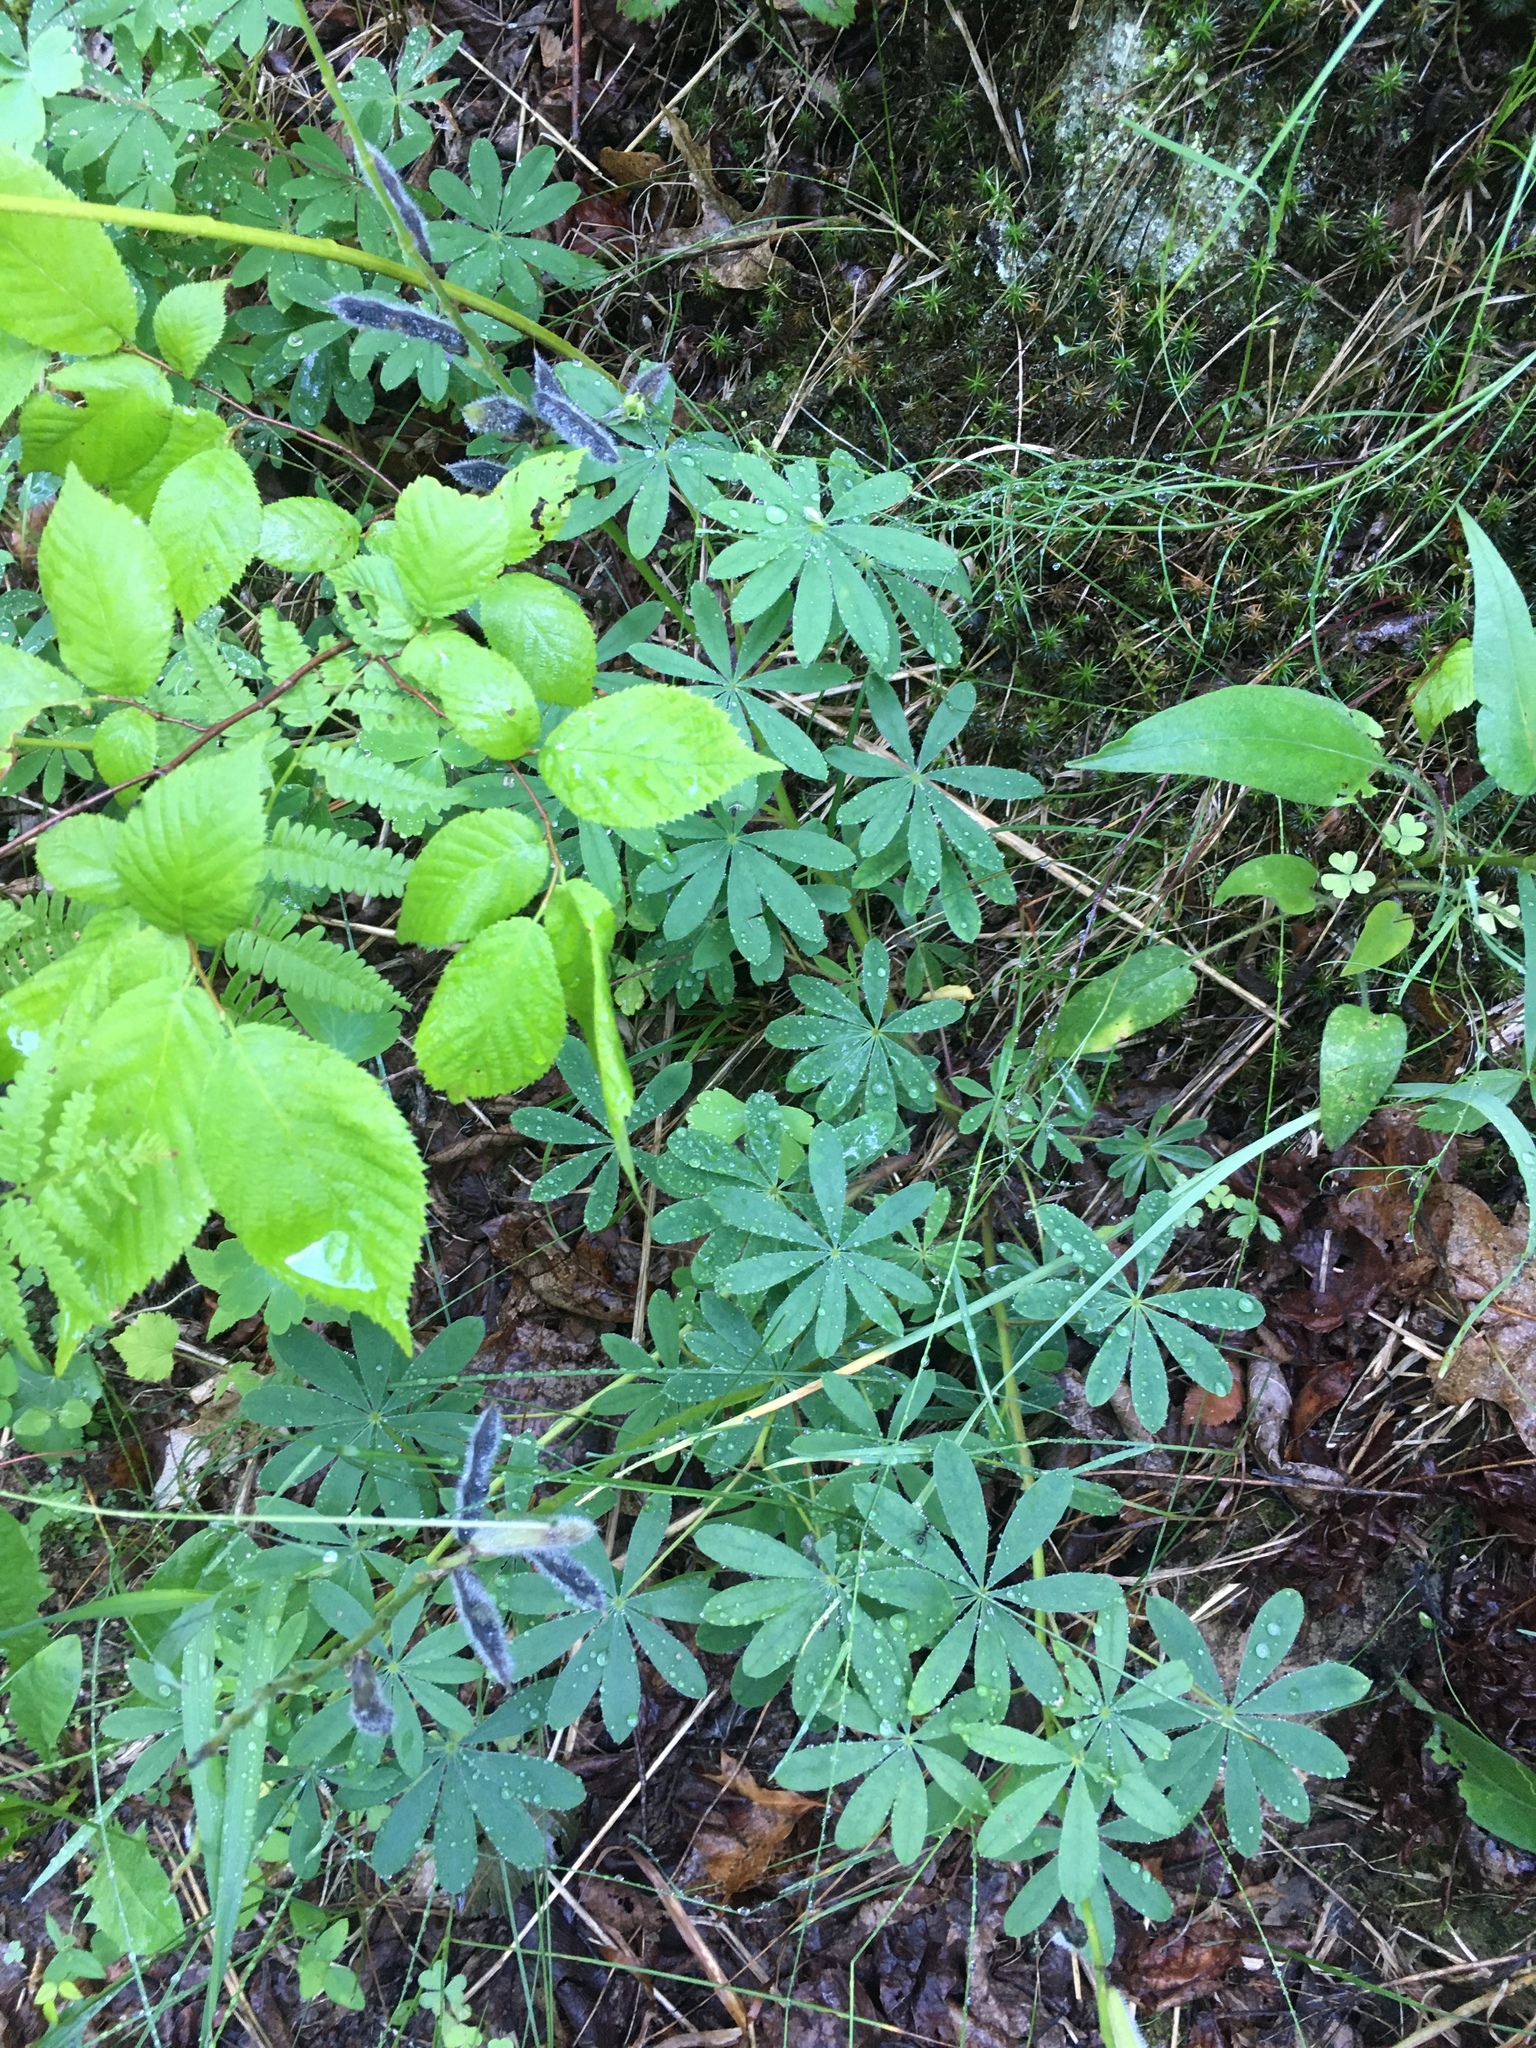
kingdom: Plantae
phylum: Tracheophyta
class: Magnoliopsida
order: Fabales
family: Fabaceae
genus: Lupinus
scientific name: Lupinus perennis
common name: Sundial lupine
